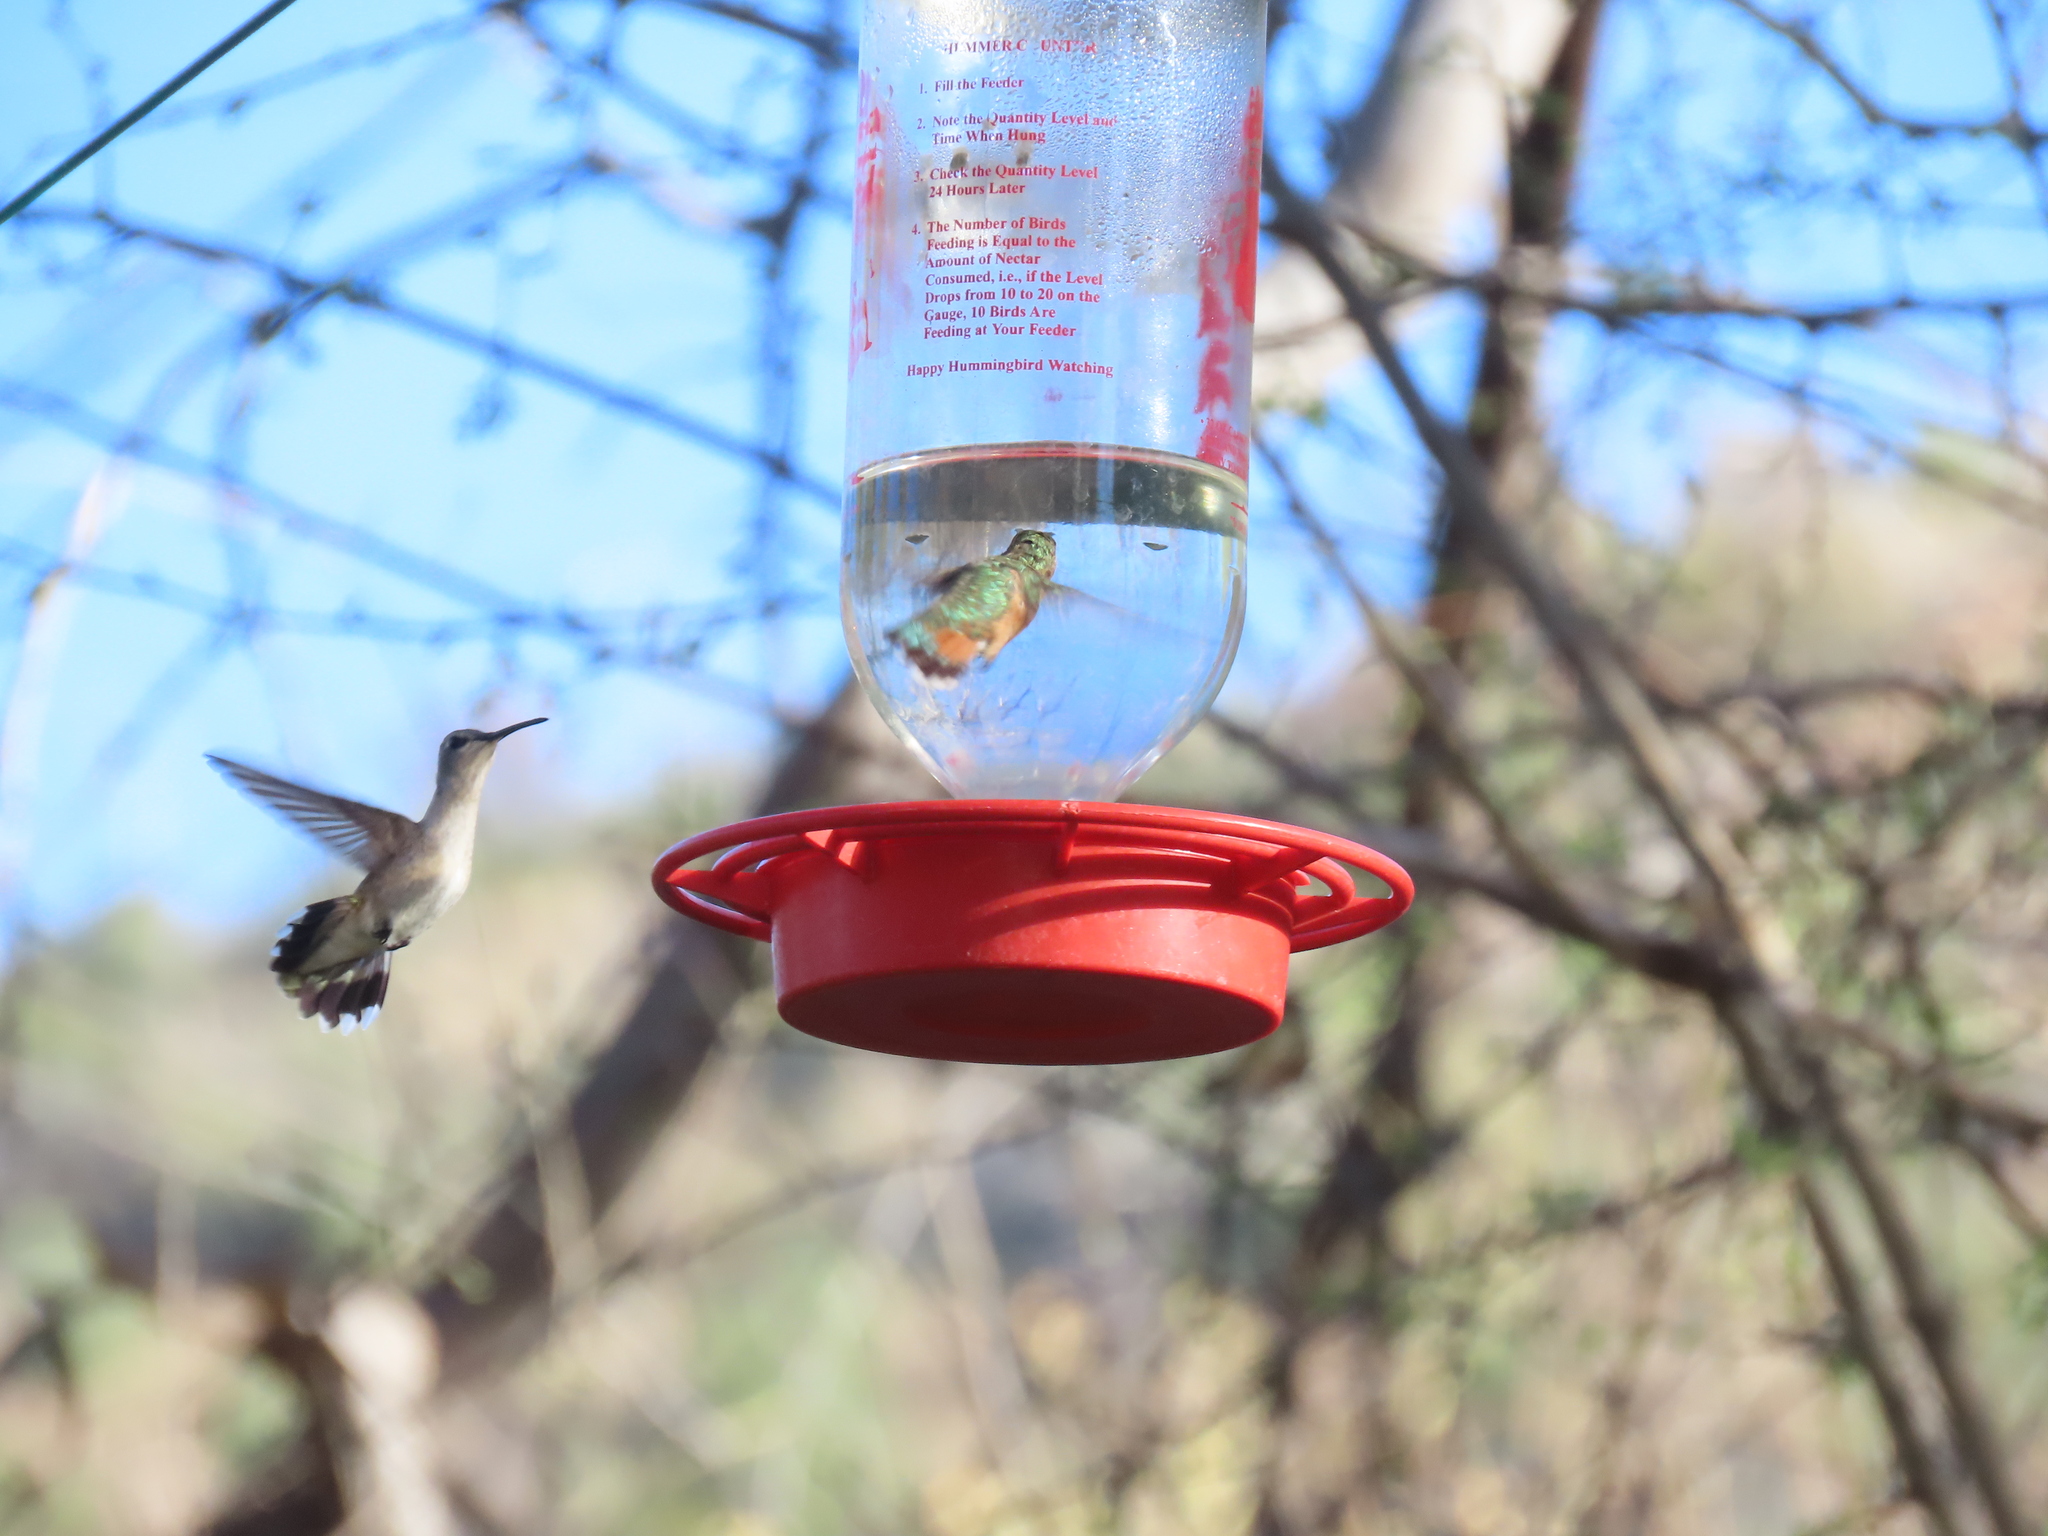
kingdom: Animalia
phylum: Chordata
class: Aves
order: Apodiformes
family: Trochilidae
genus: Archilochus
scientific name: Archilochus alexandri
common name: Black-chinned hummingbird
